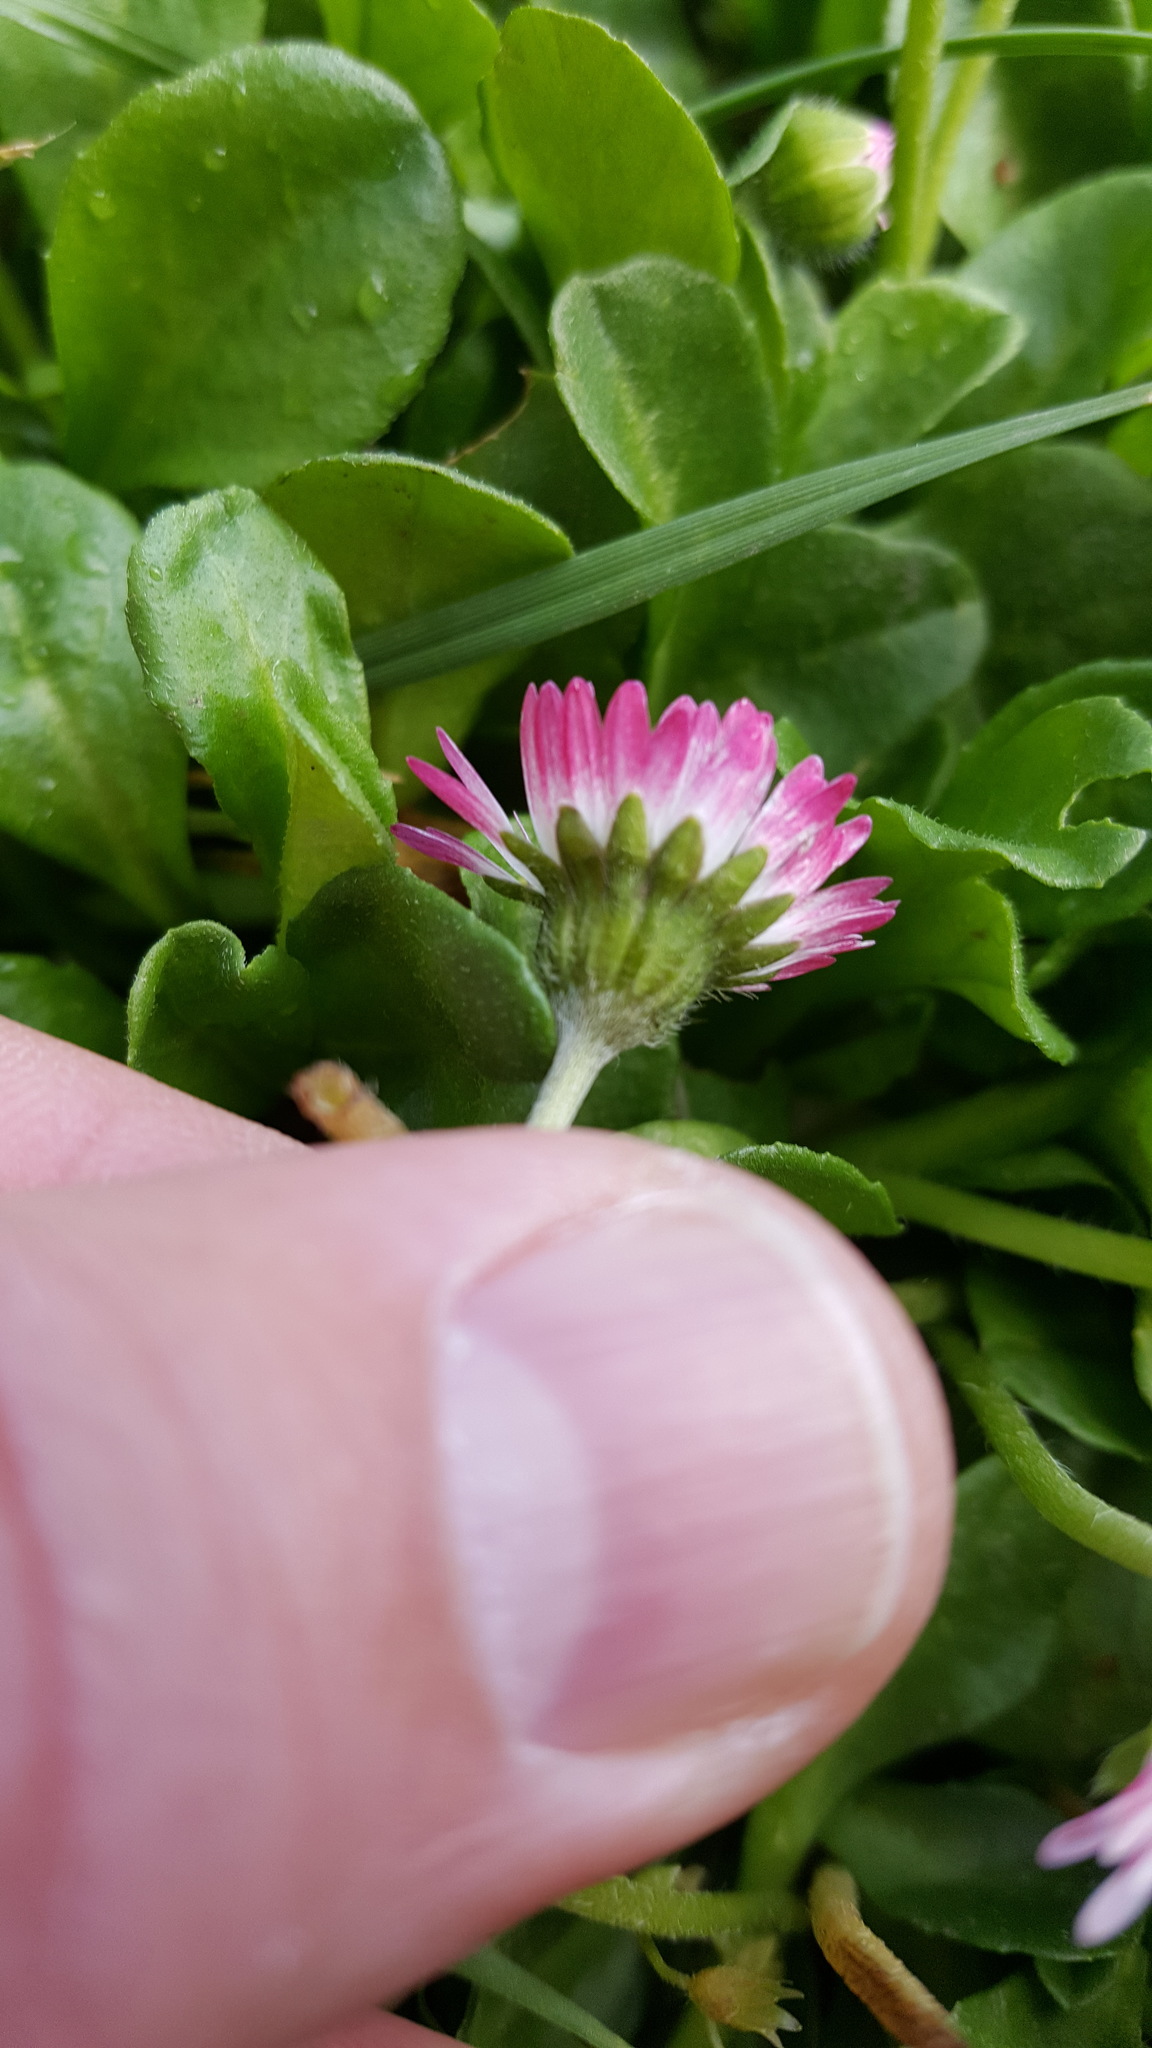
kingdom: Plantae
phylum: Tracheophyta
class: Magnoliopsida
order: Asterales
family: Asteraceae
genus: Bellis
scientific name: Bellis perennis
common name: Lawndaisy
